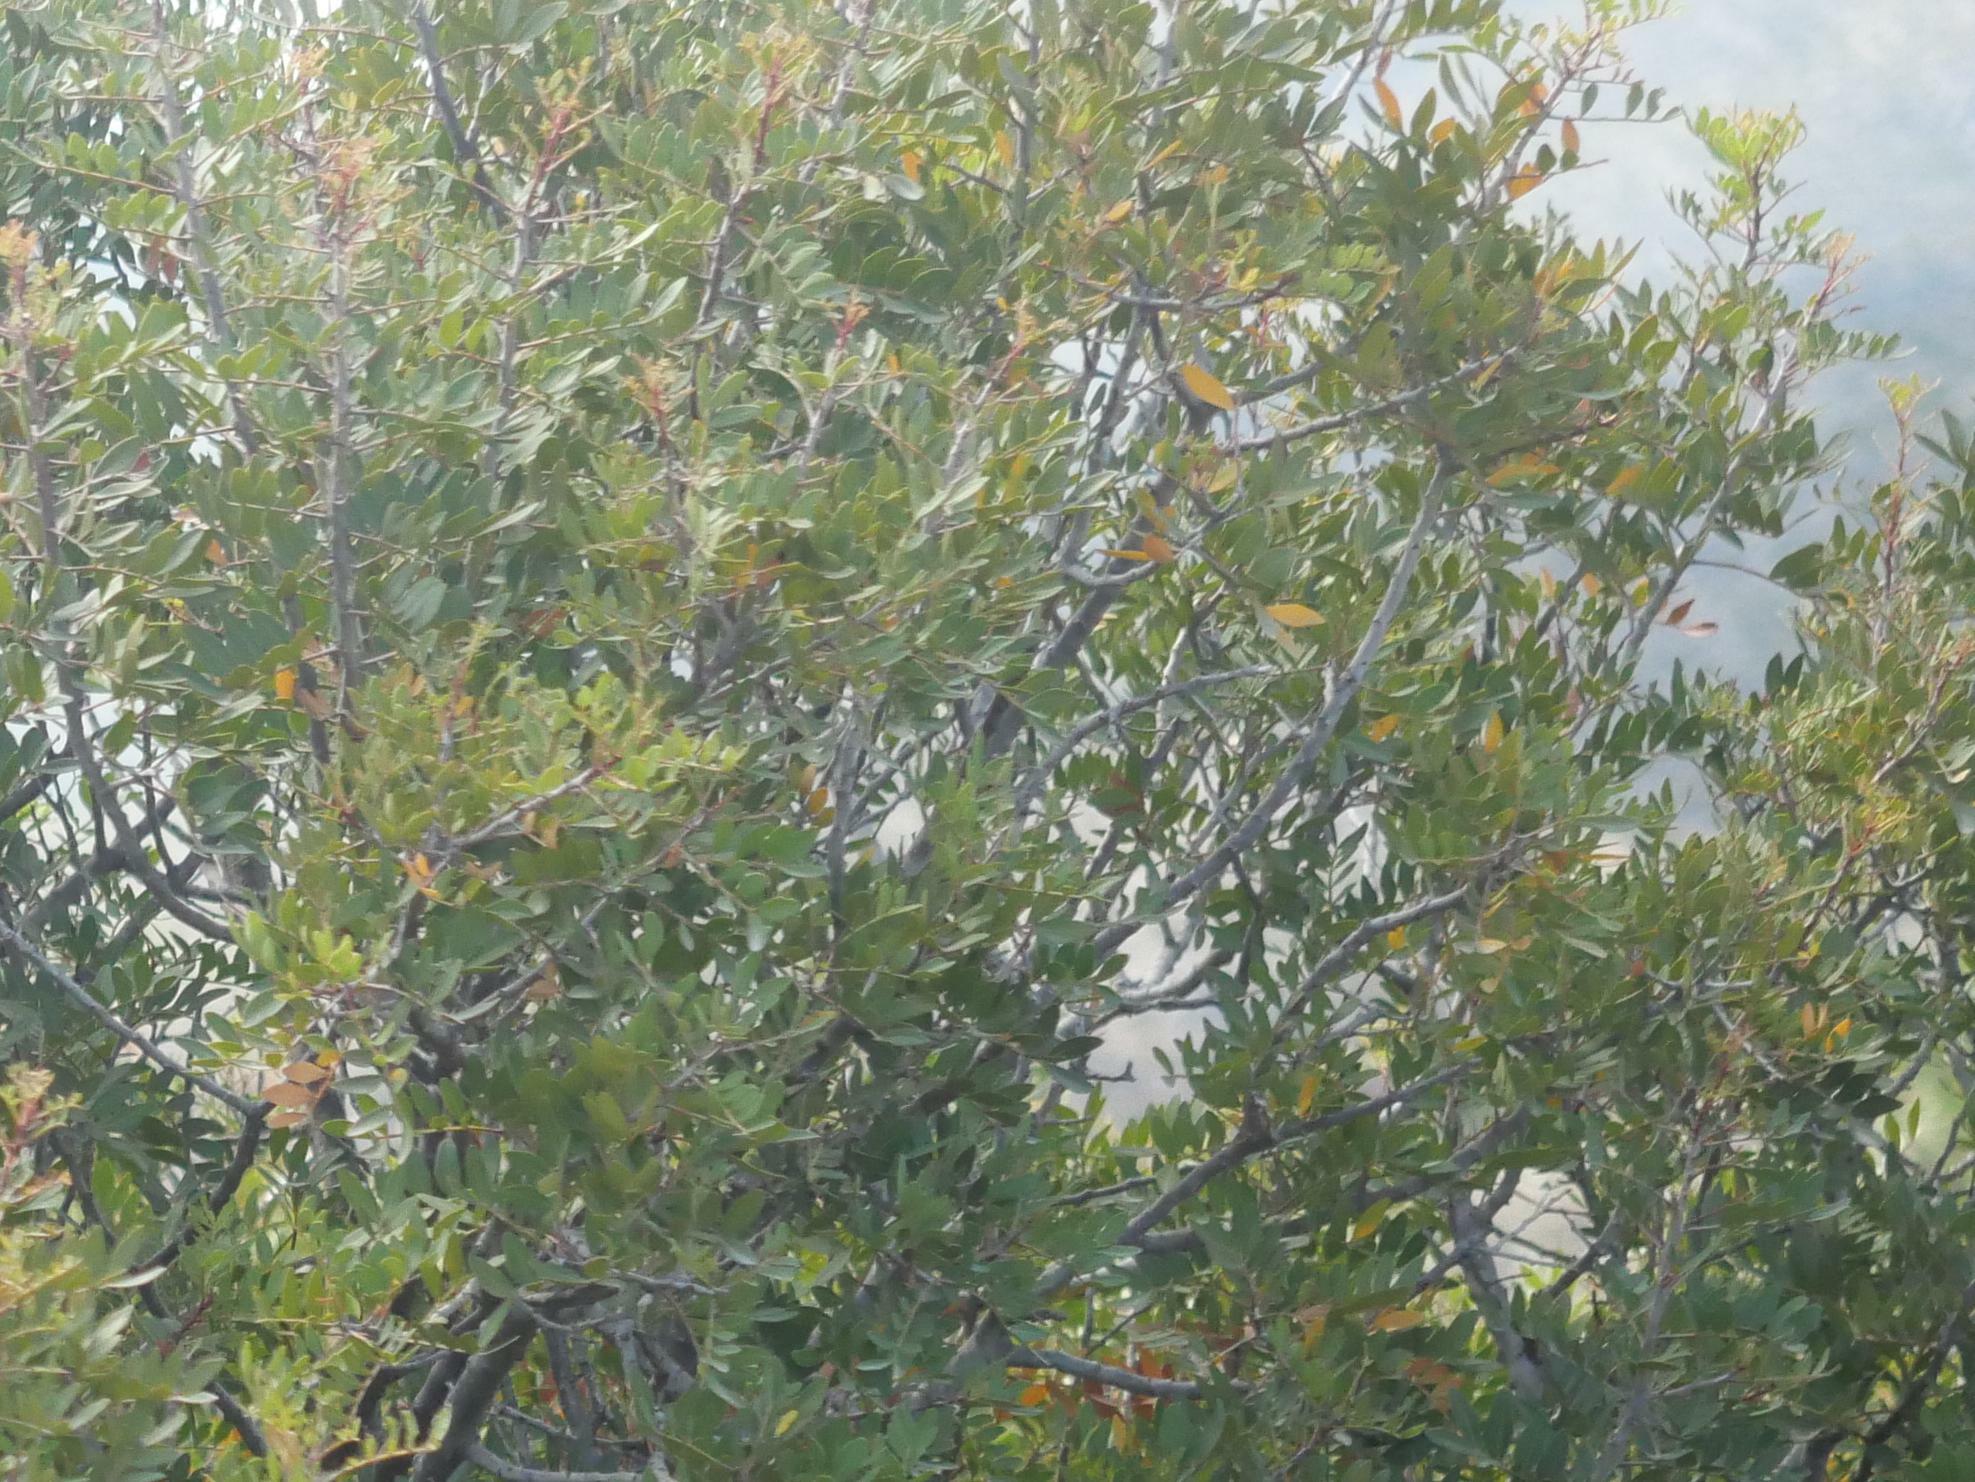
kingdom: Plantae
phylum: Tracheophyta
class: Magnoliopsida
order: Sapindales
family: Anacardiaceae
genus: Pistacia
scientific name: Pistacia lentiscus
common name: Lentisk
